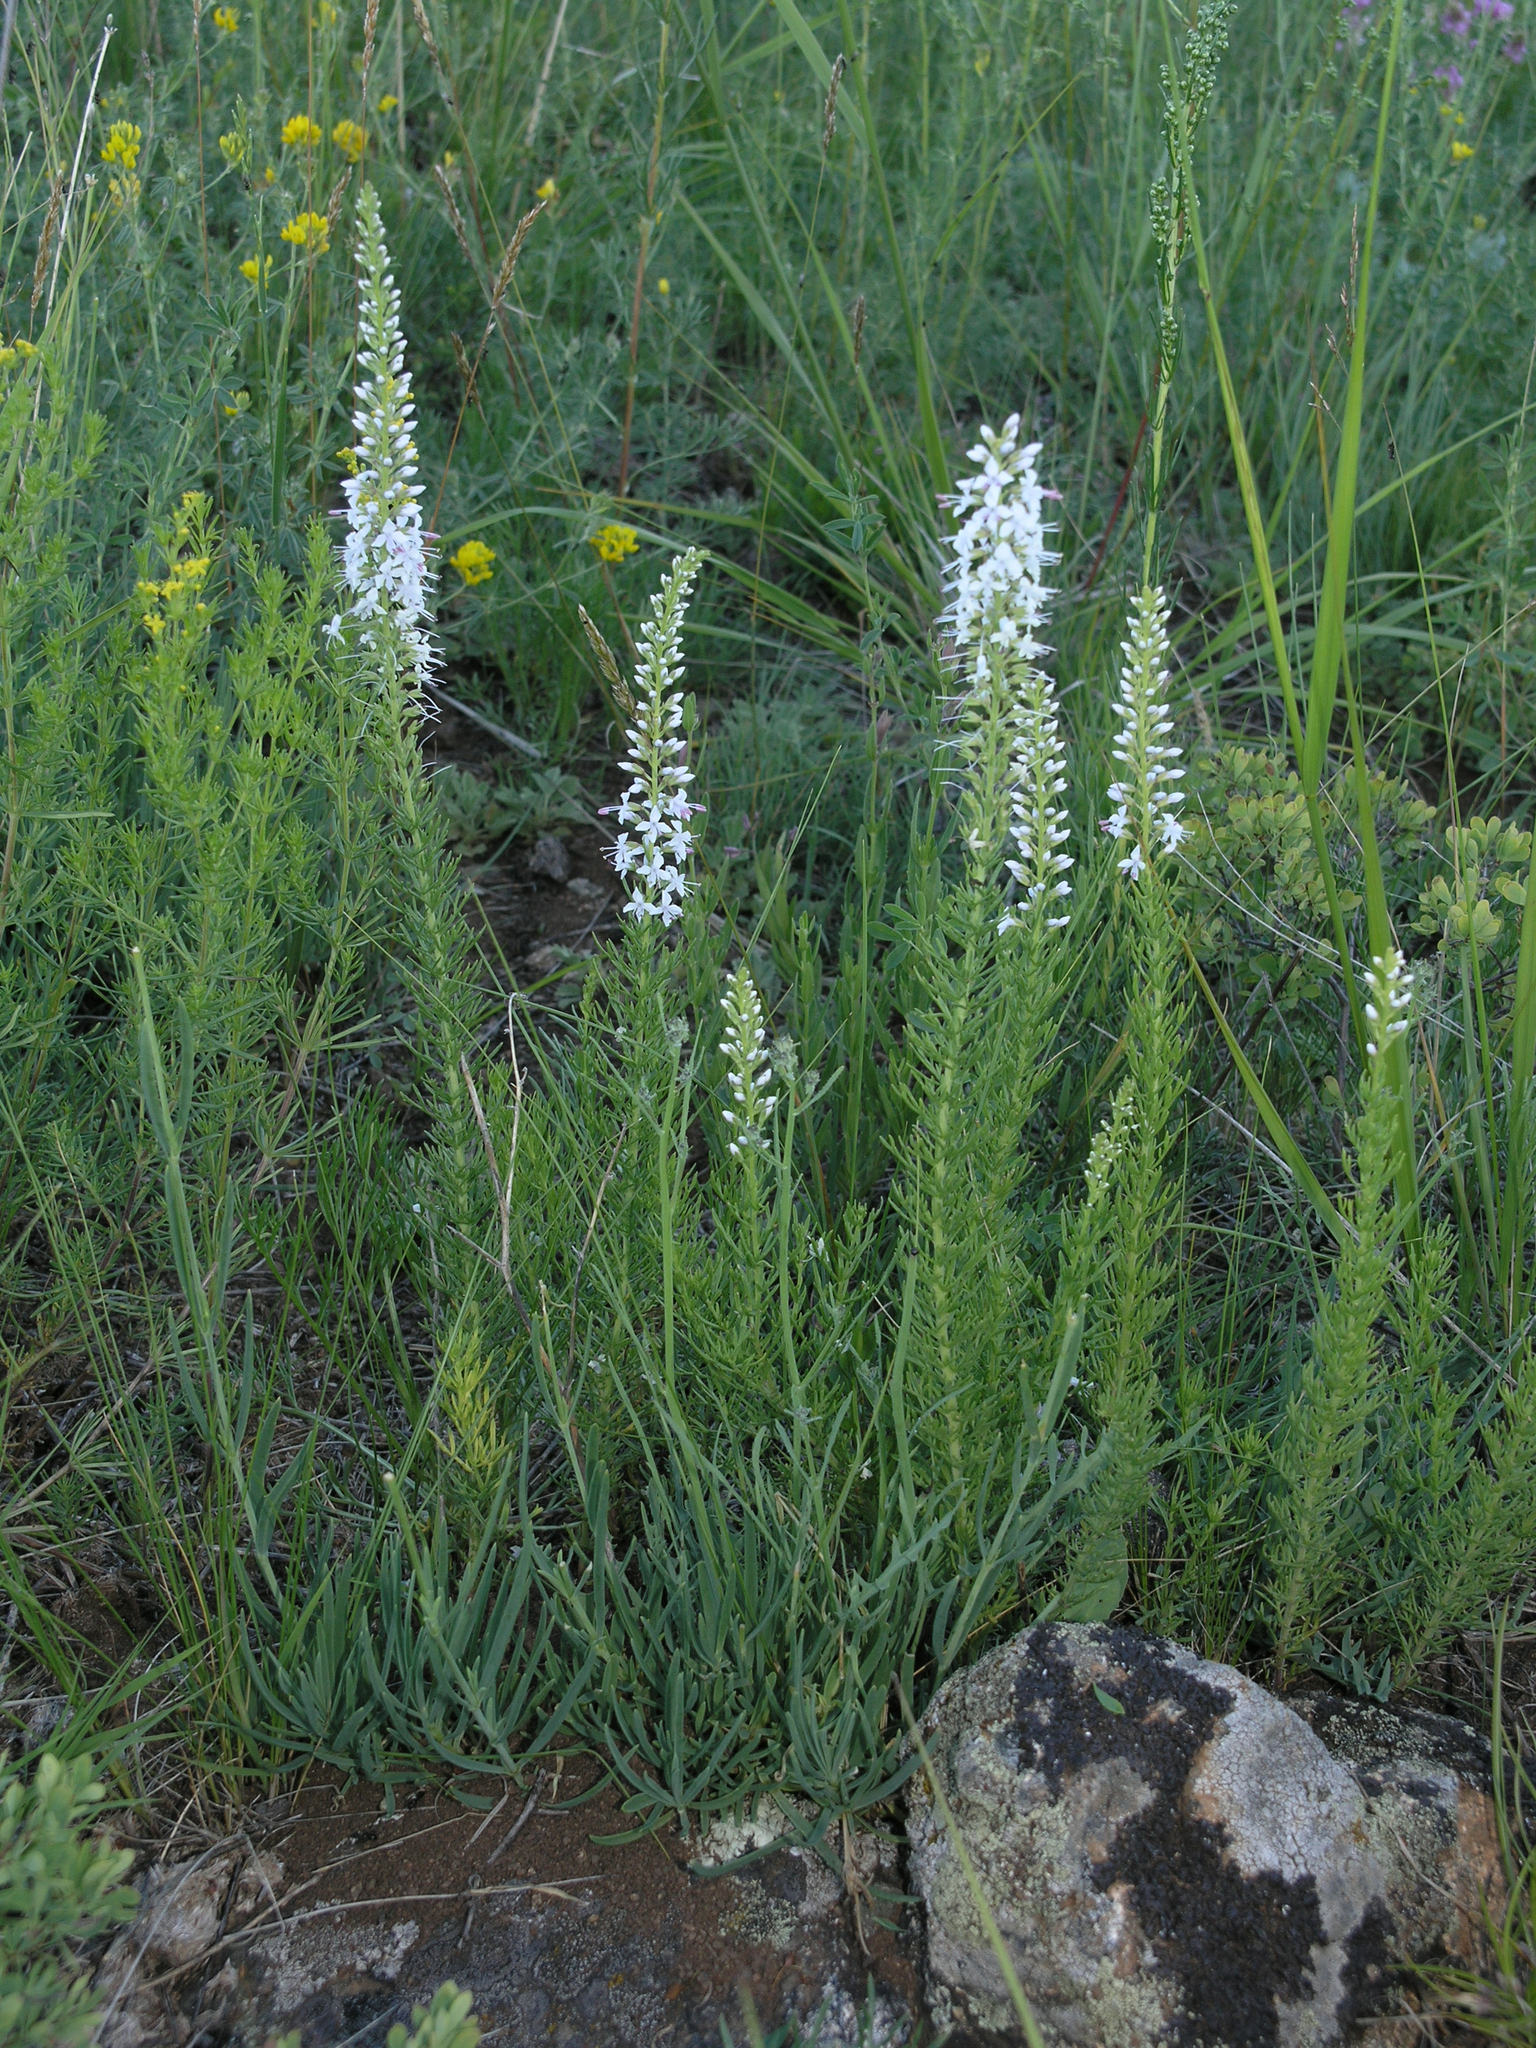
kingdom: Plantae
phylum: Tracheophyta
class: Magnoliopsida
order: Lamiales
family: Plantaginaceae
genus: Veronica
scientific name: Veronica pinnata
